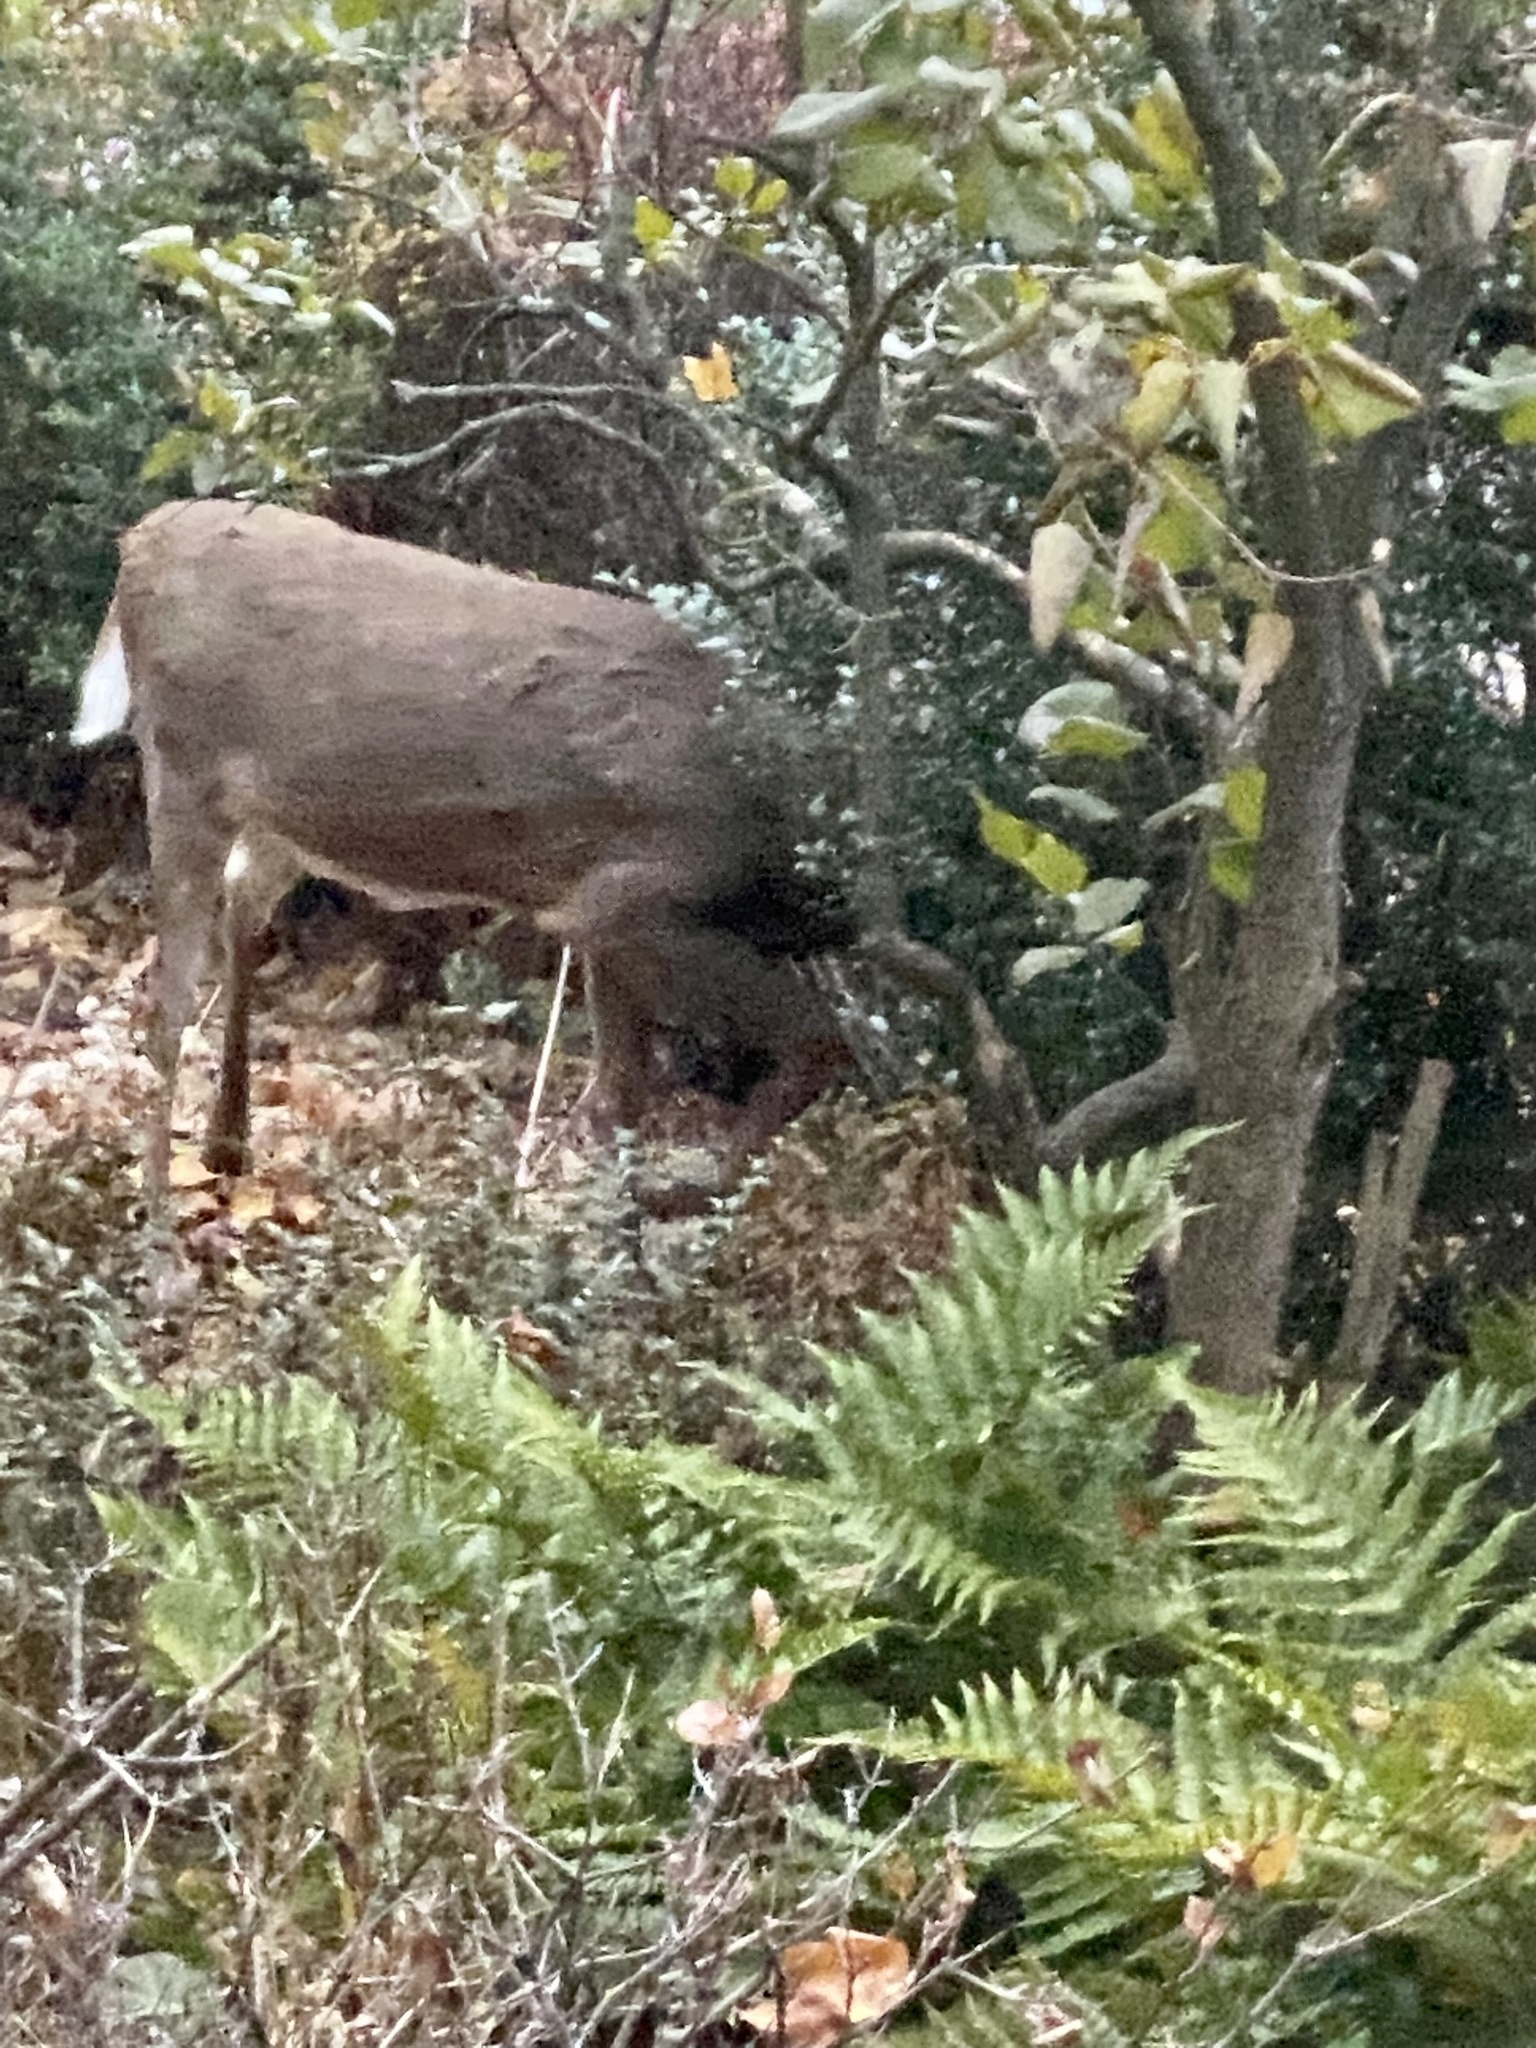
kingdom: Animalia
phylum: Chordata
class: Mammalia
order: Artiodactyla
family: Cervidae
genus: Odocoileus
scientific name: Odocoileus virginianus
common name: White-tailed deer
